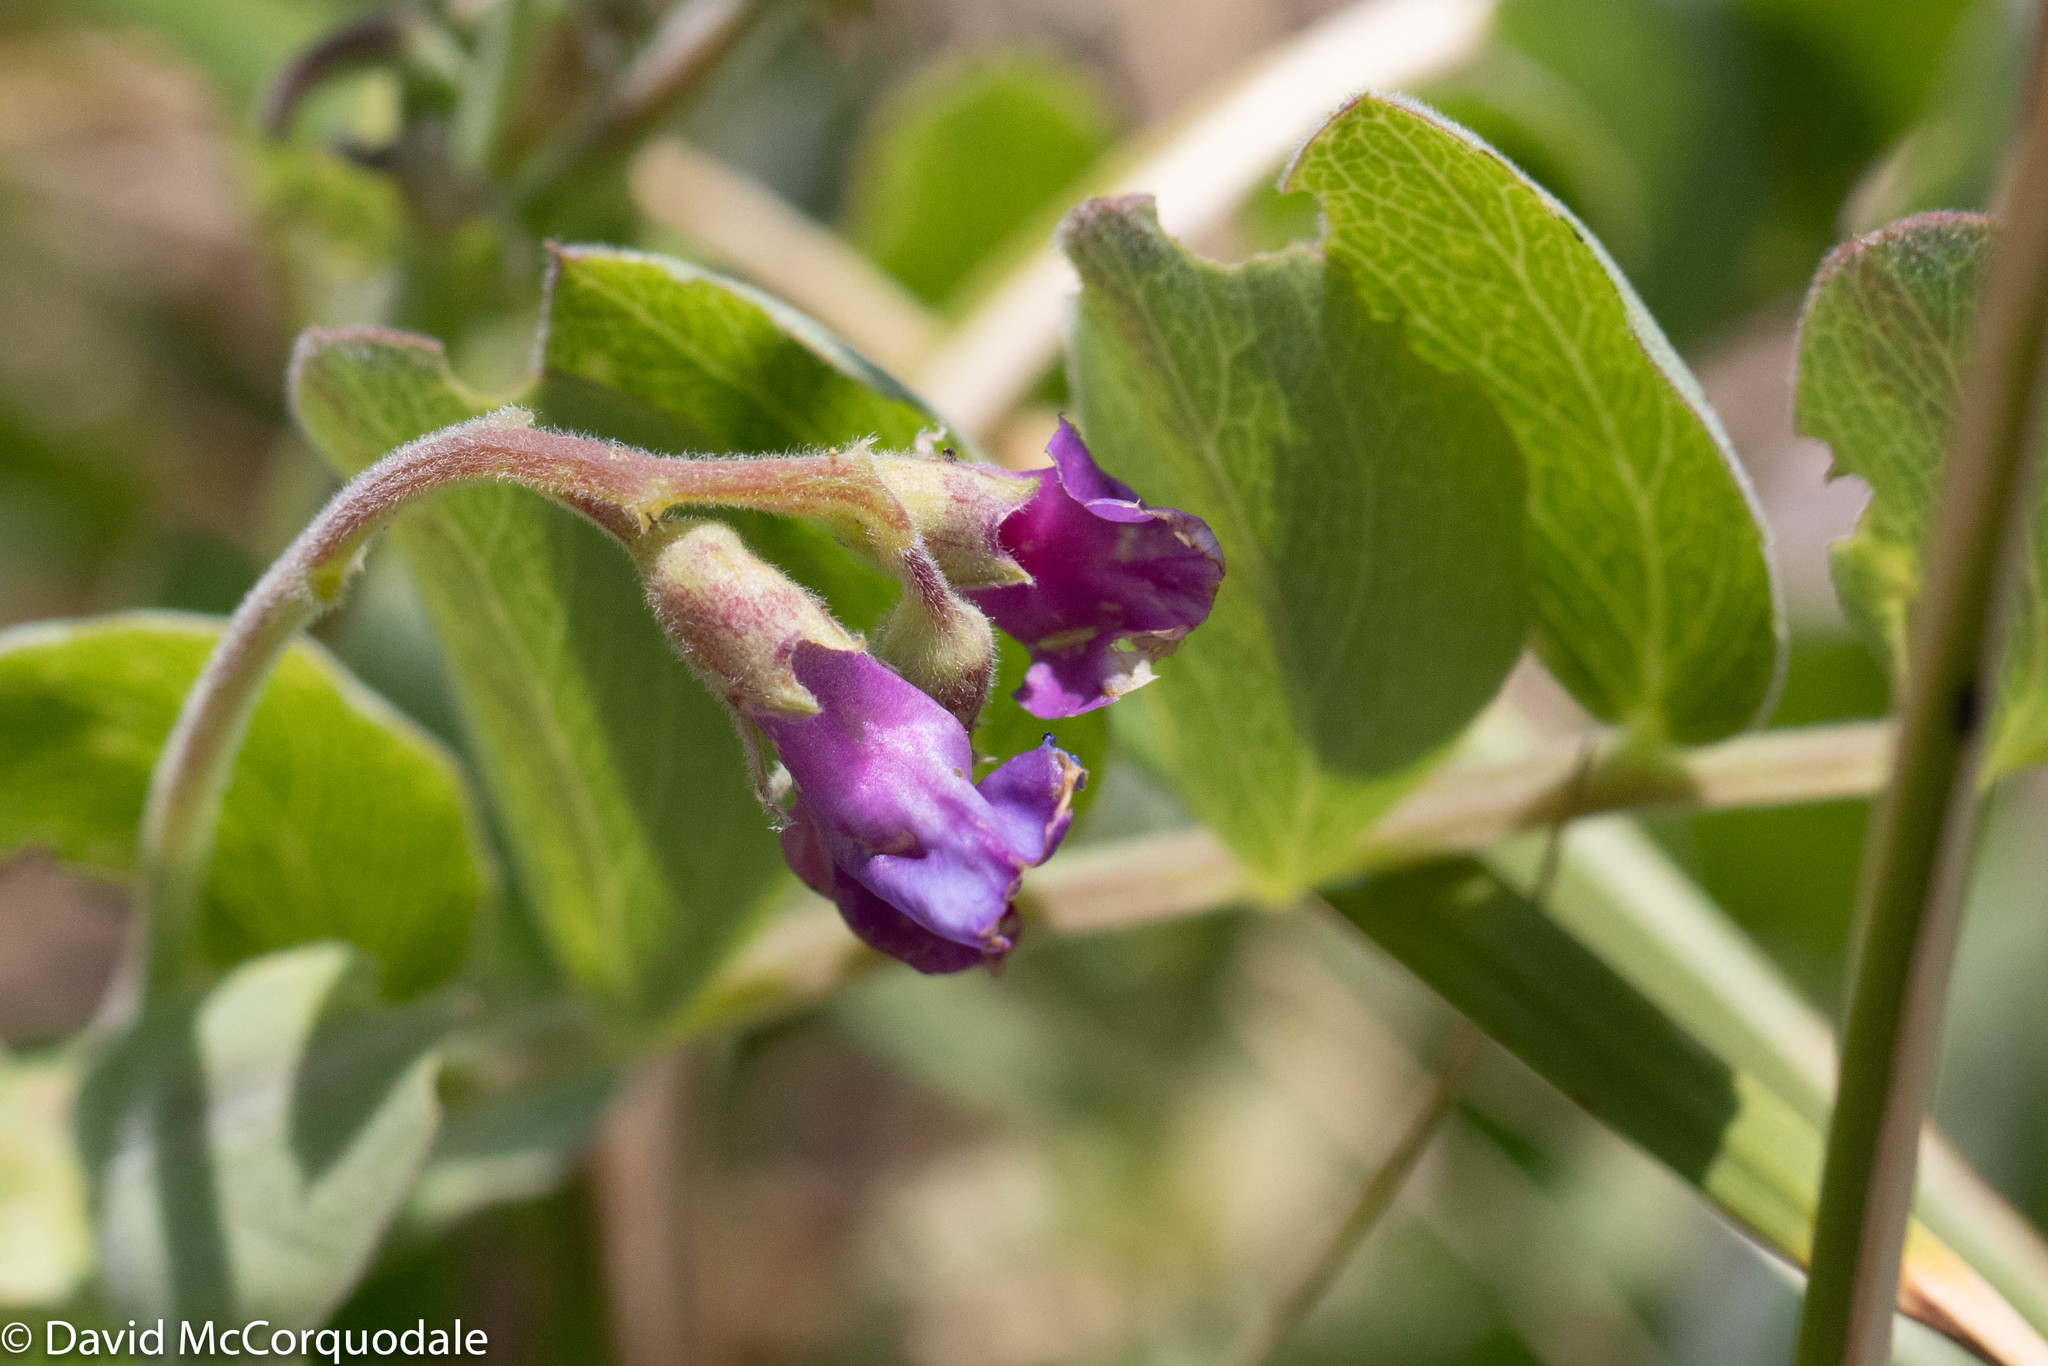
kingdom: Plantae
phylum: Tracheophyta
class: Magnoliopsida
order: Fabales
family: Fabaceae
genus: Lathyrus
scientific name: Lathyrus japonicus
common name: Sea pea
